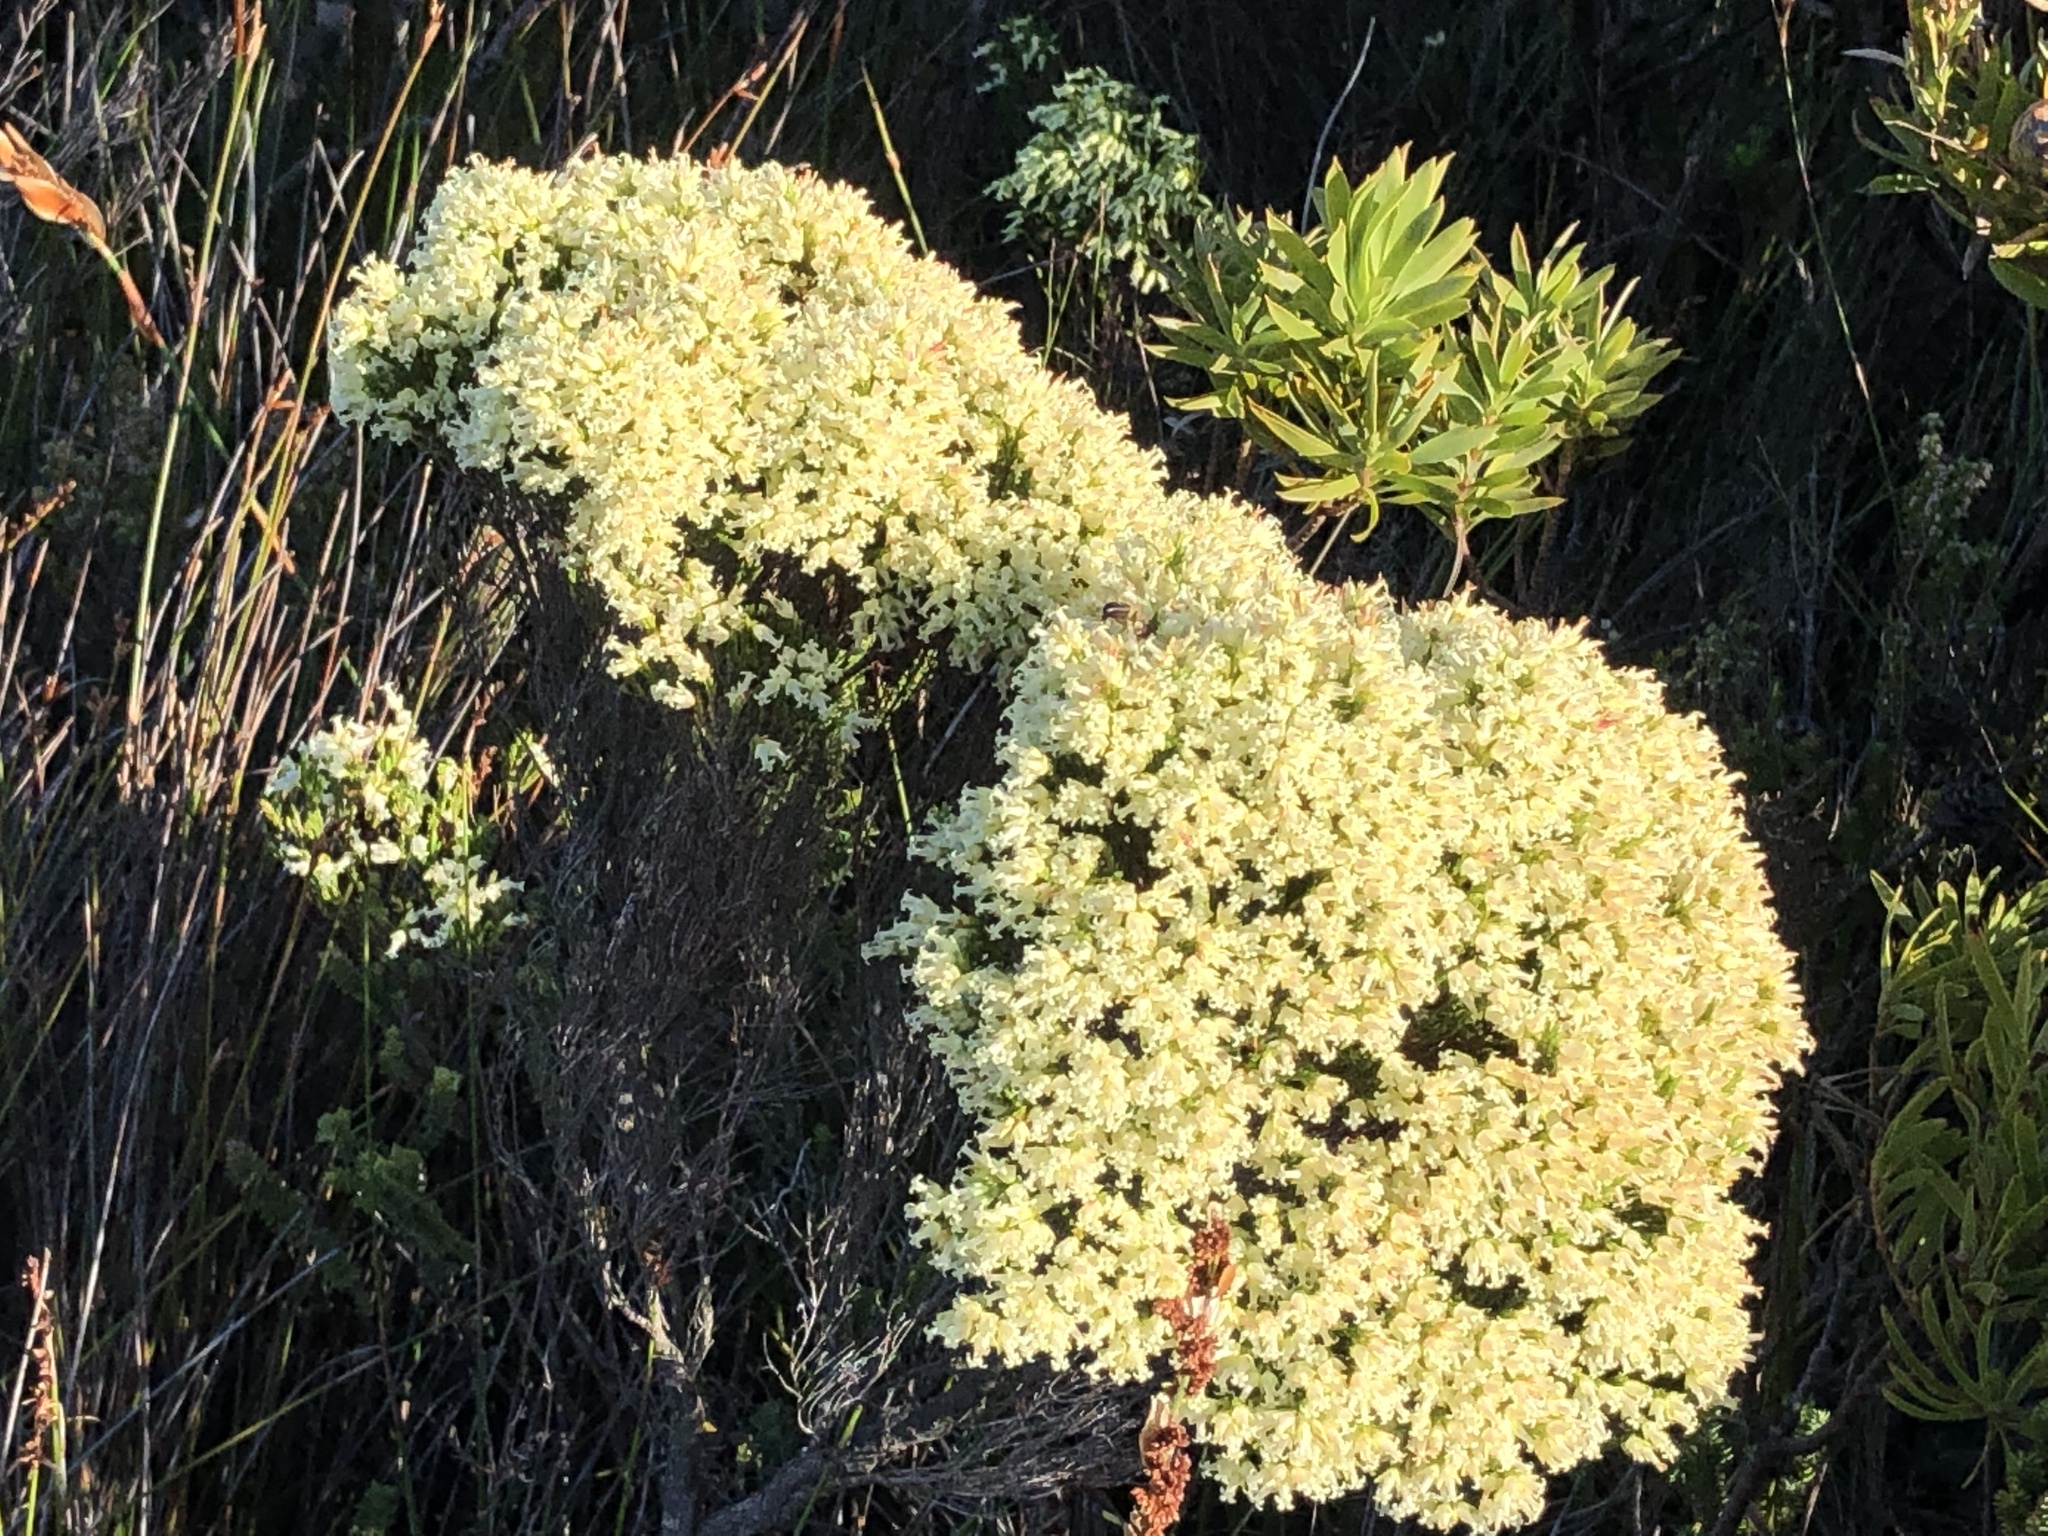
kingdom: Plantae
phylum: Tracheophyta
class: Magnoliopsida
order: Ericales
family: Ericaceae
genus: Erica
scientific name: Erica lutea
